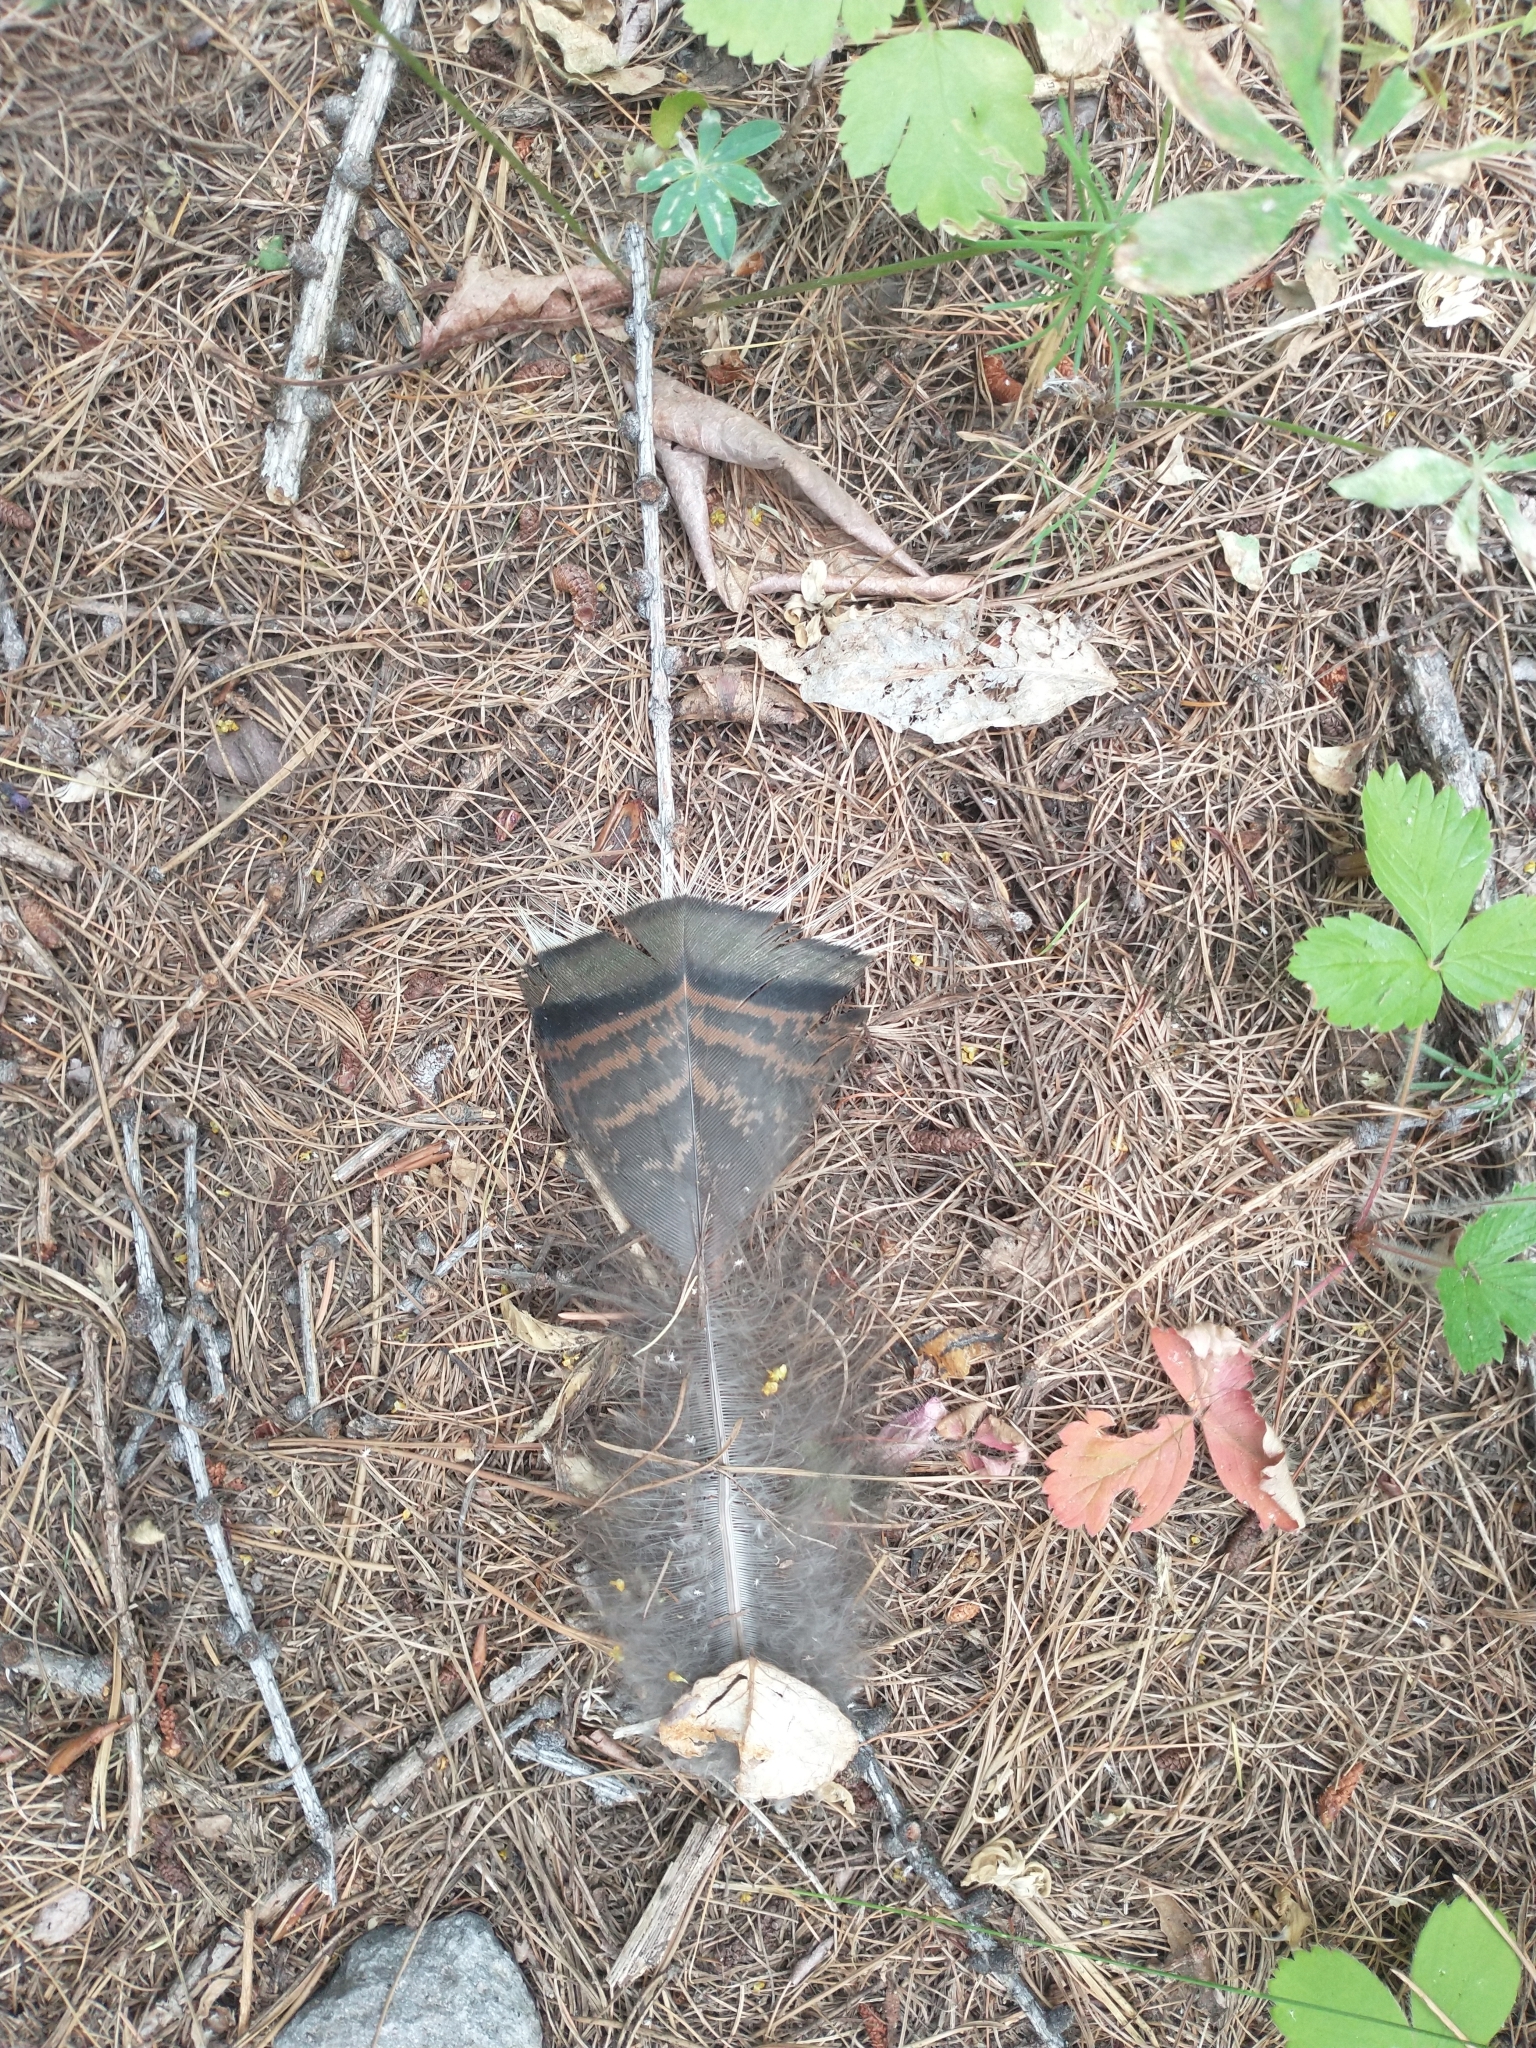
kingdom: Animalia
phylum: Chordata
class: Aves
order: Galliformes
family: Phasianidae
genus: Meleagris
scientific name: Meleagris gallopavo
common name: Wild turkey
